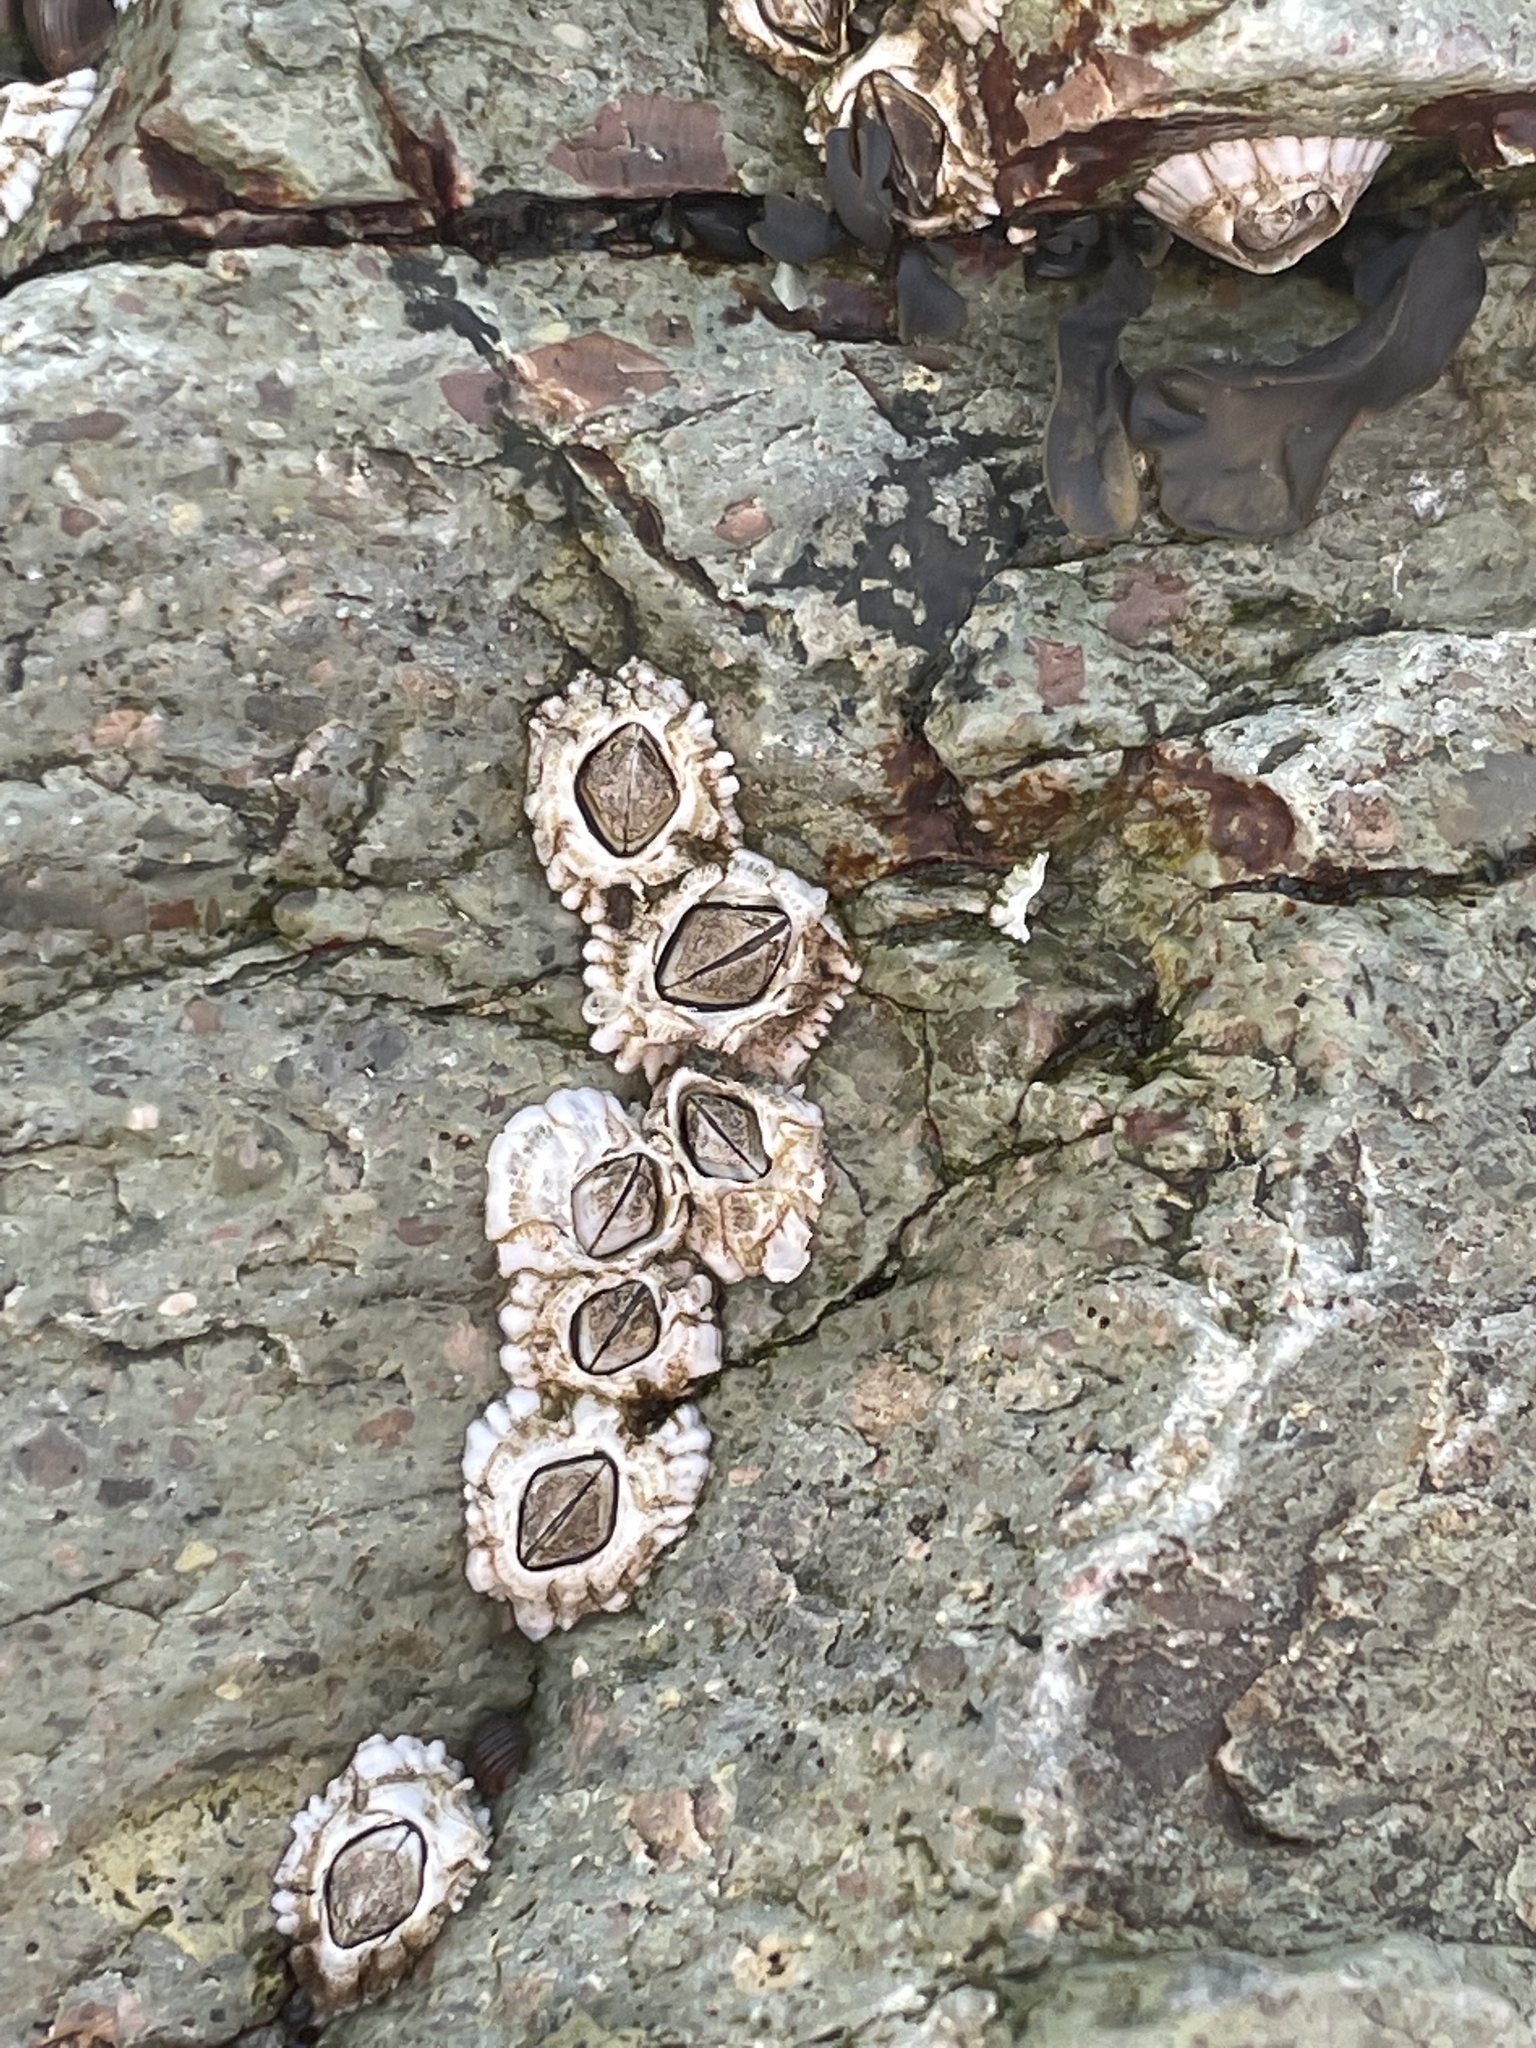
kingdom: Animalia
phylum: Arthropoda
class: Maxillopoda
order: Sessilia
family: Archaeobalanidae
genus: Semibalanus
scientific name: Semibalanus balanoides
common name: Acorn barnacle
